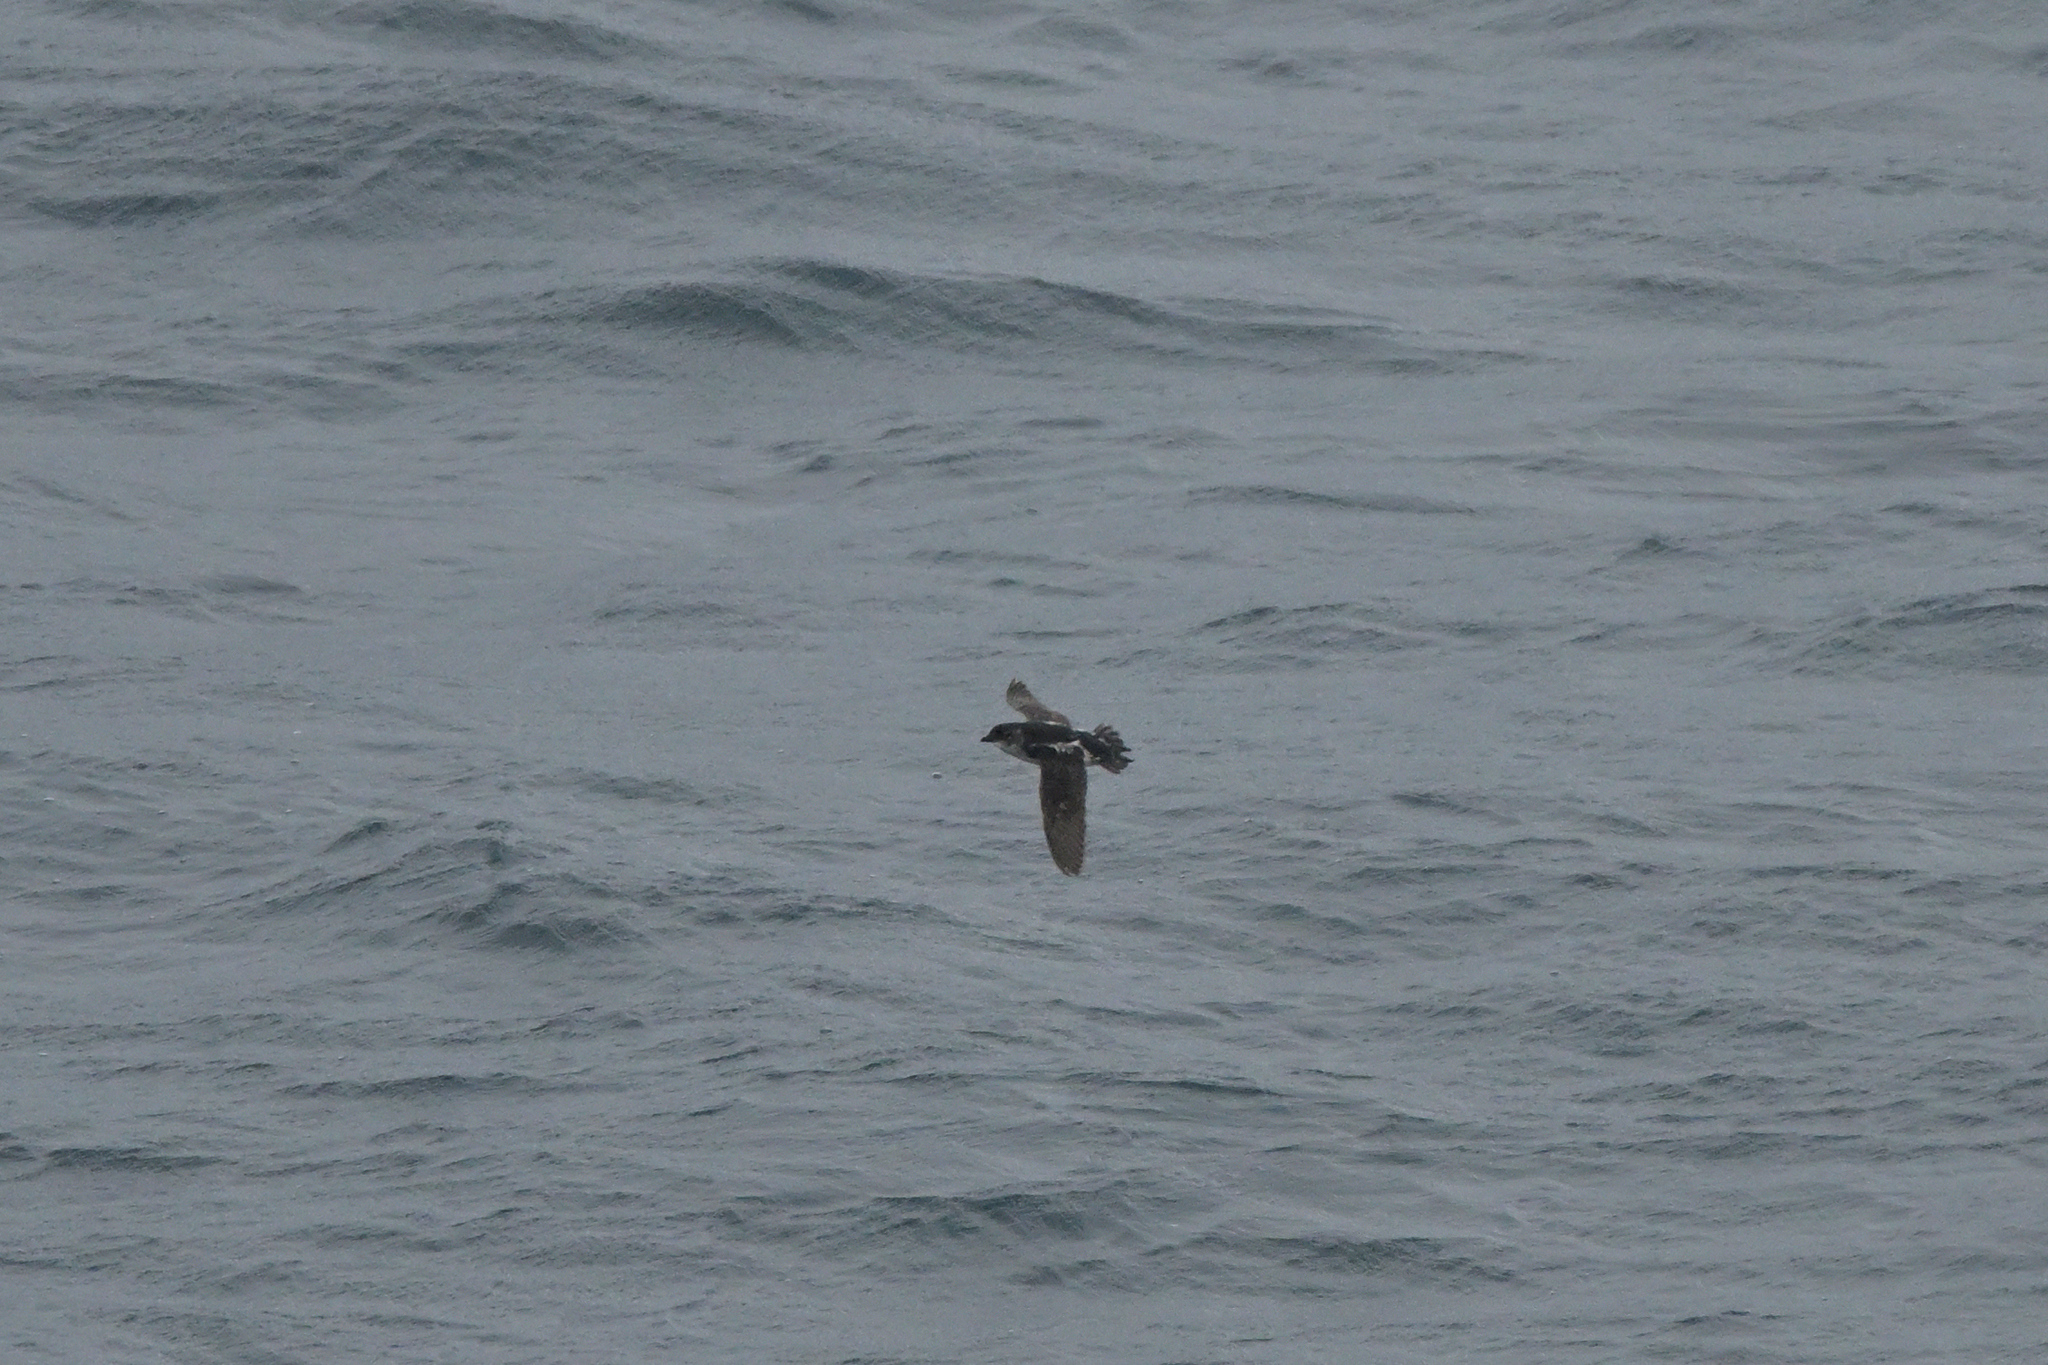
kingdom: Animalia
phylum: Chordata
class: Aves
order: Procellariiformes
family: Pelecanoididae
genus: Pelecanoides
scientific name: Pelecanoides urinatrix
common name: Common diving-petrel
